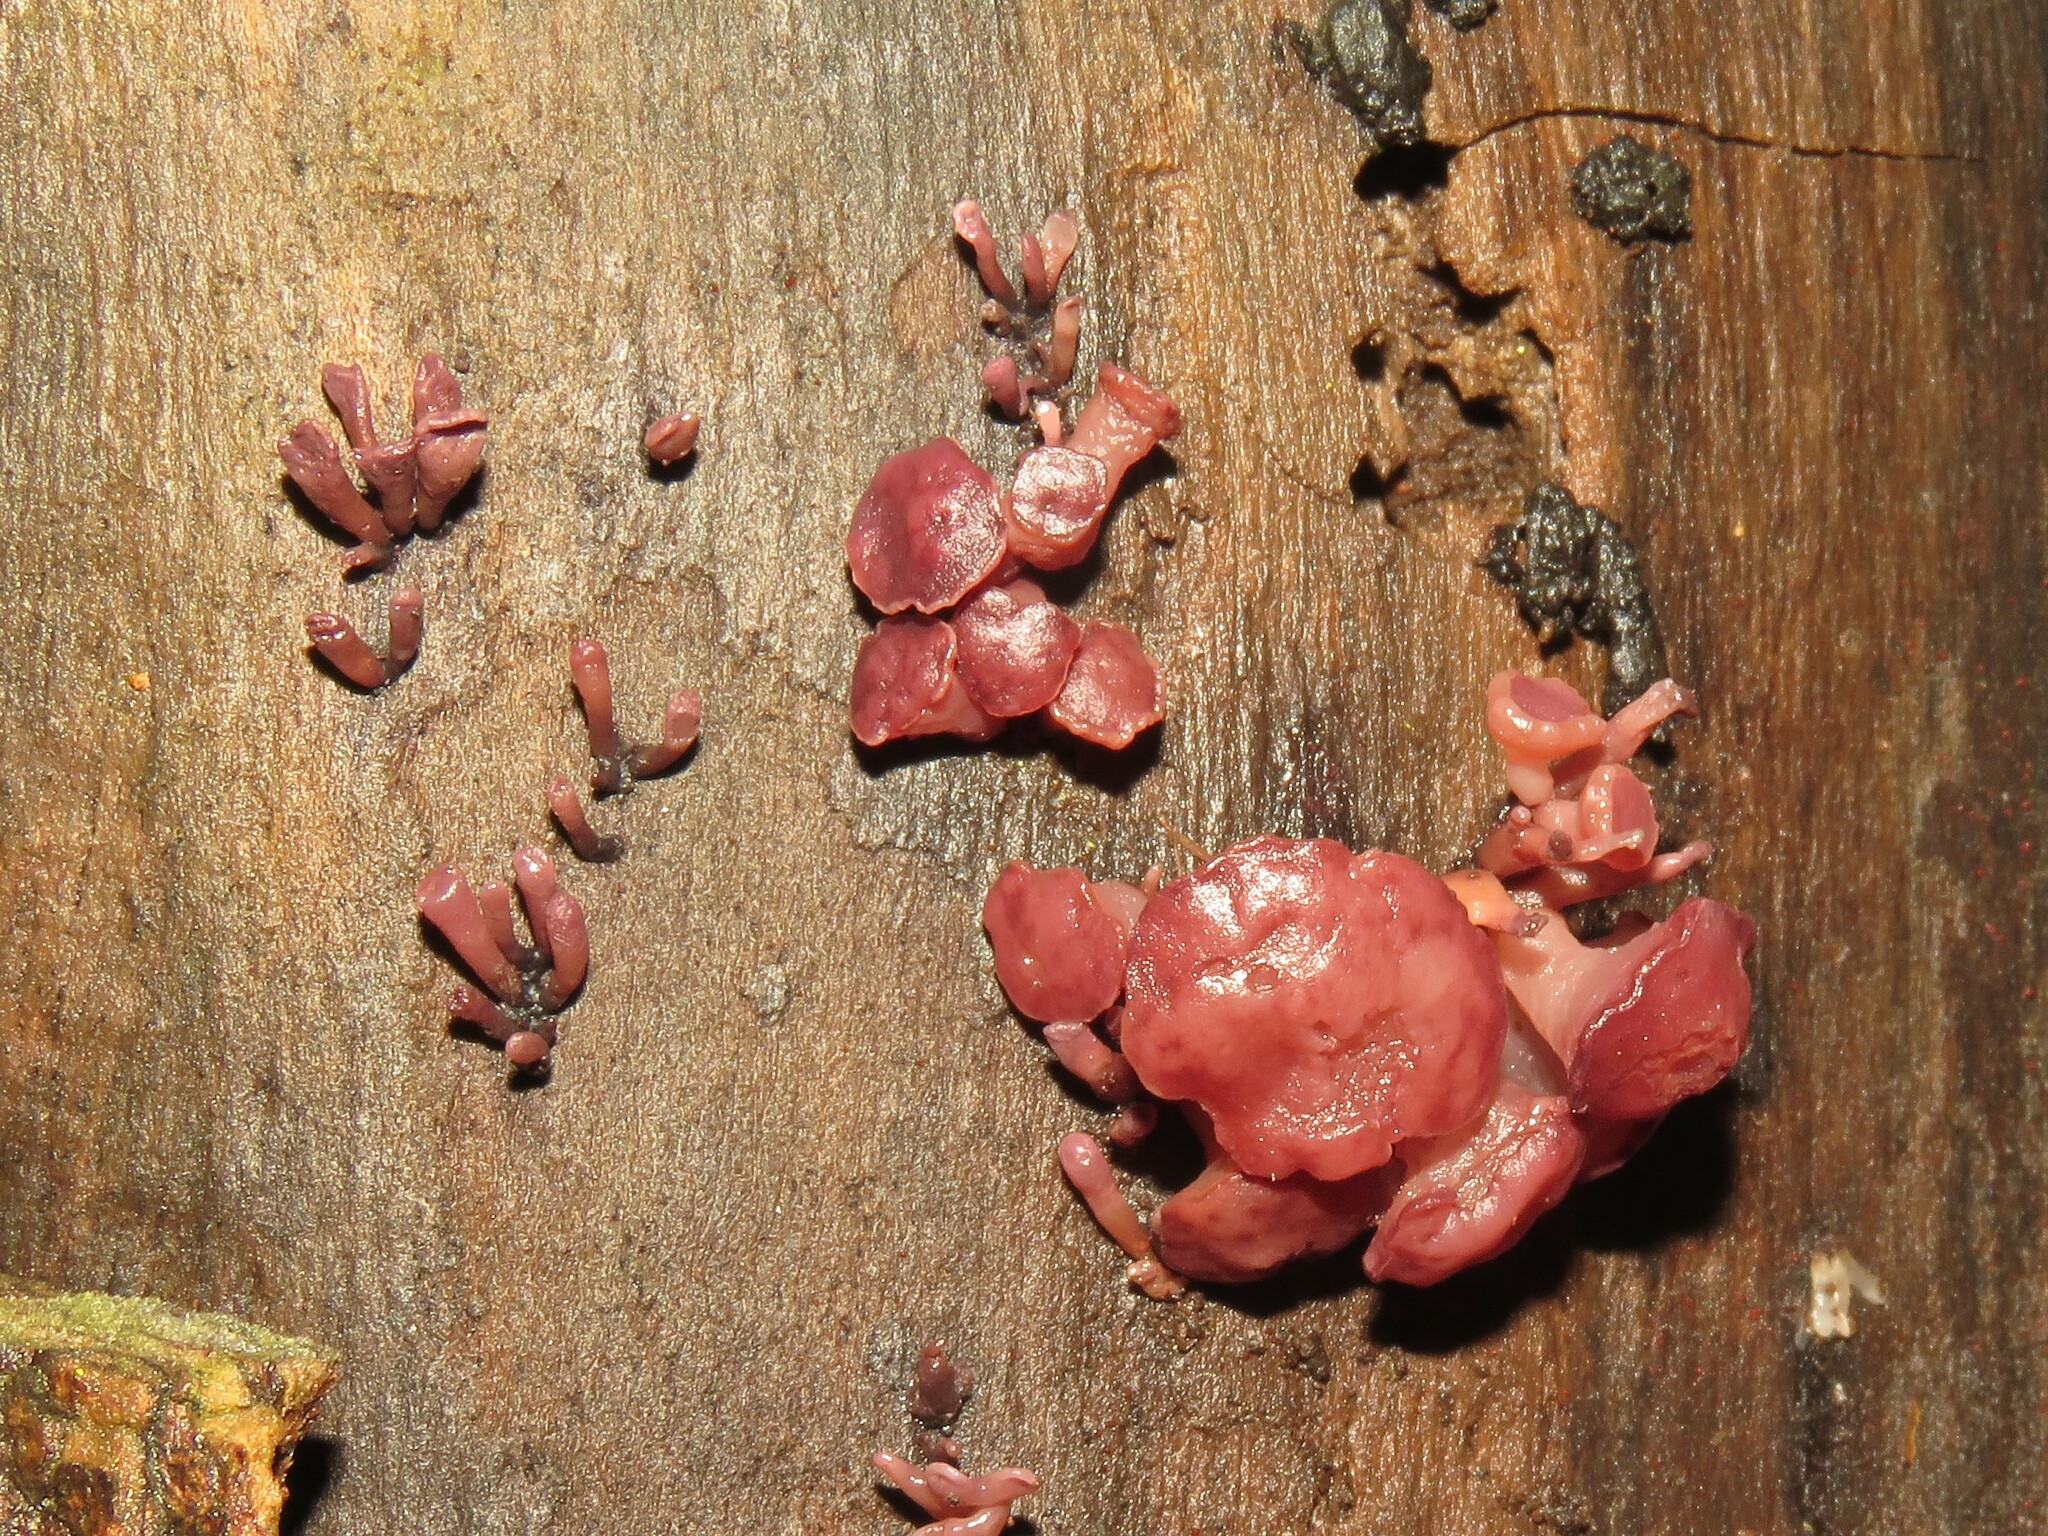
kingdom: Fungi
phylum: Ascomycota
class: Leotiomycetes
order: Helotiales
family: Gelatinodiscaceae
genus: Ascocoryne
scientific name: Ascocoryne sarcoides
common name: Purple jellydisc
